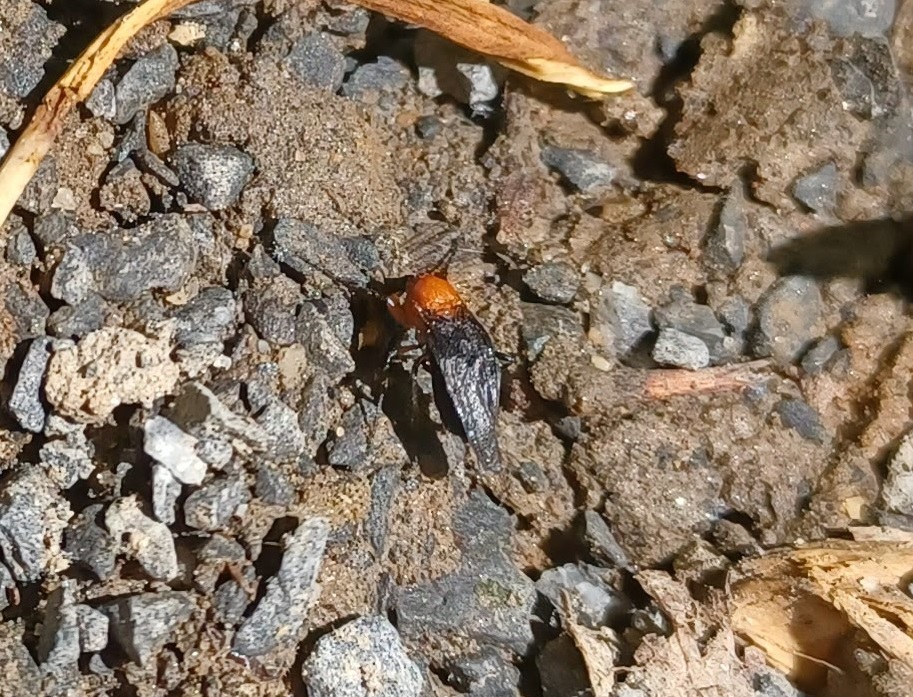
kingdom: Animalia
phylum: Arthropoda
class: Insecta
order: Diptera
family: Bibionidae
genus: Dilophus
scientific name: Dilophus spinipes
